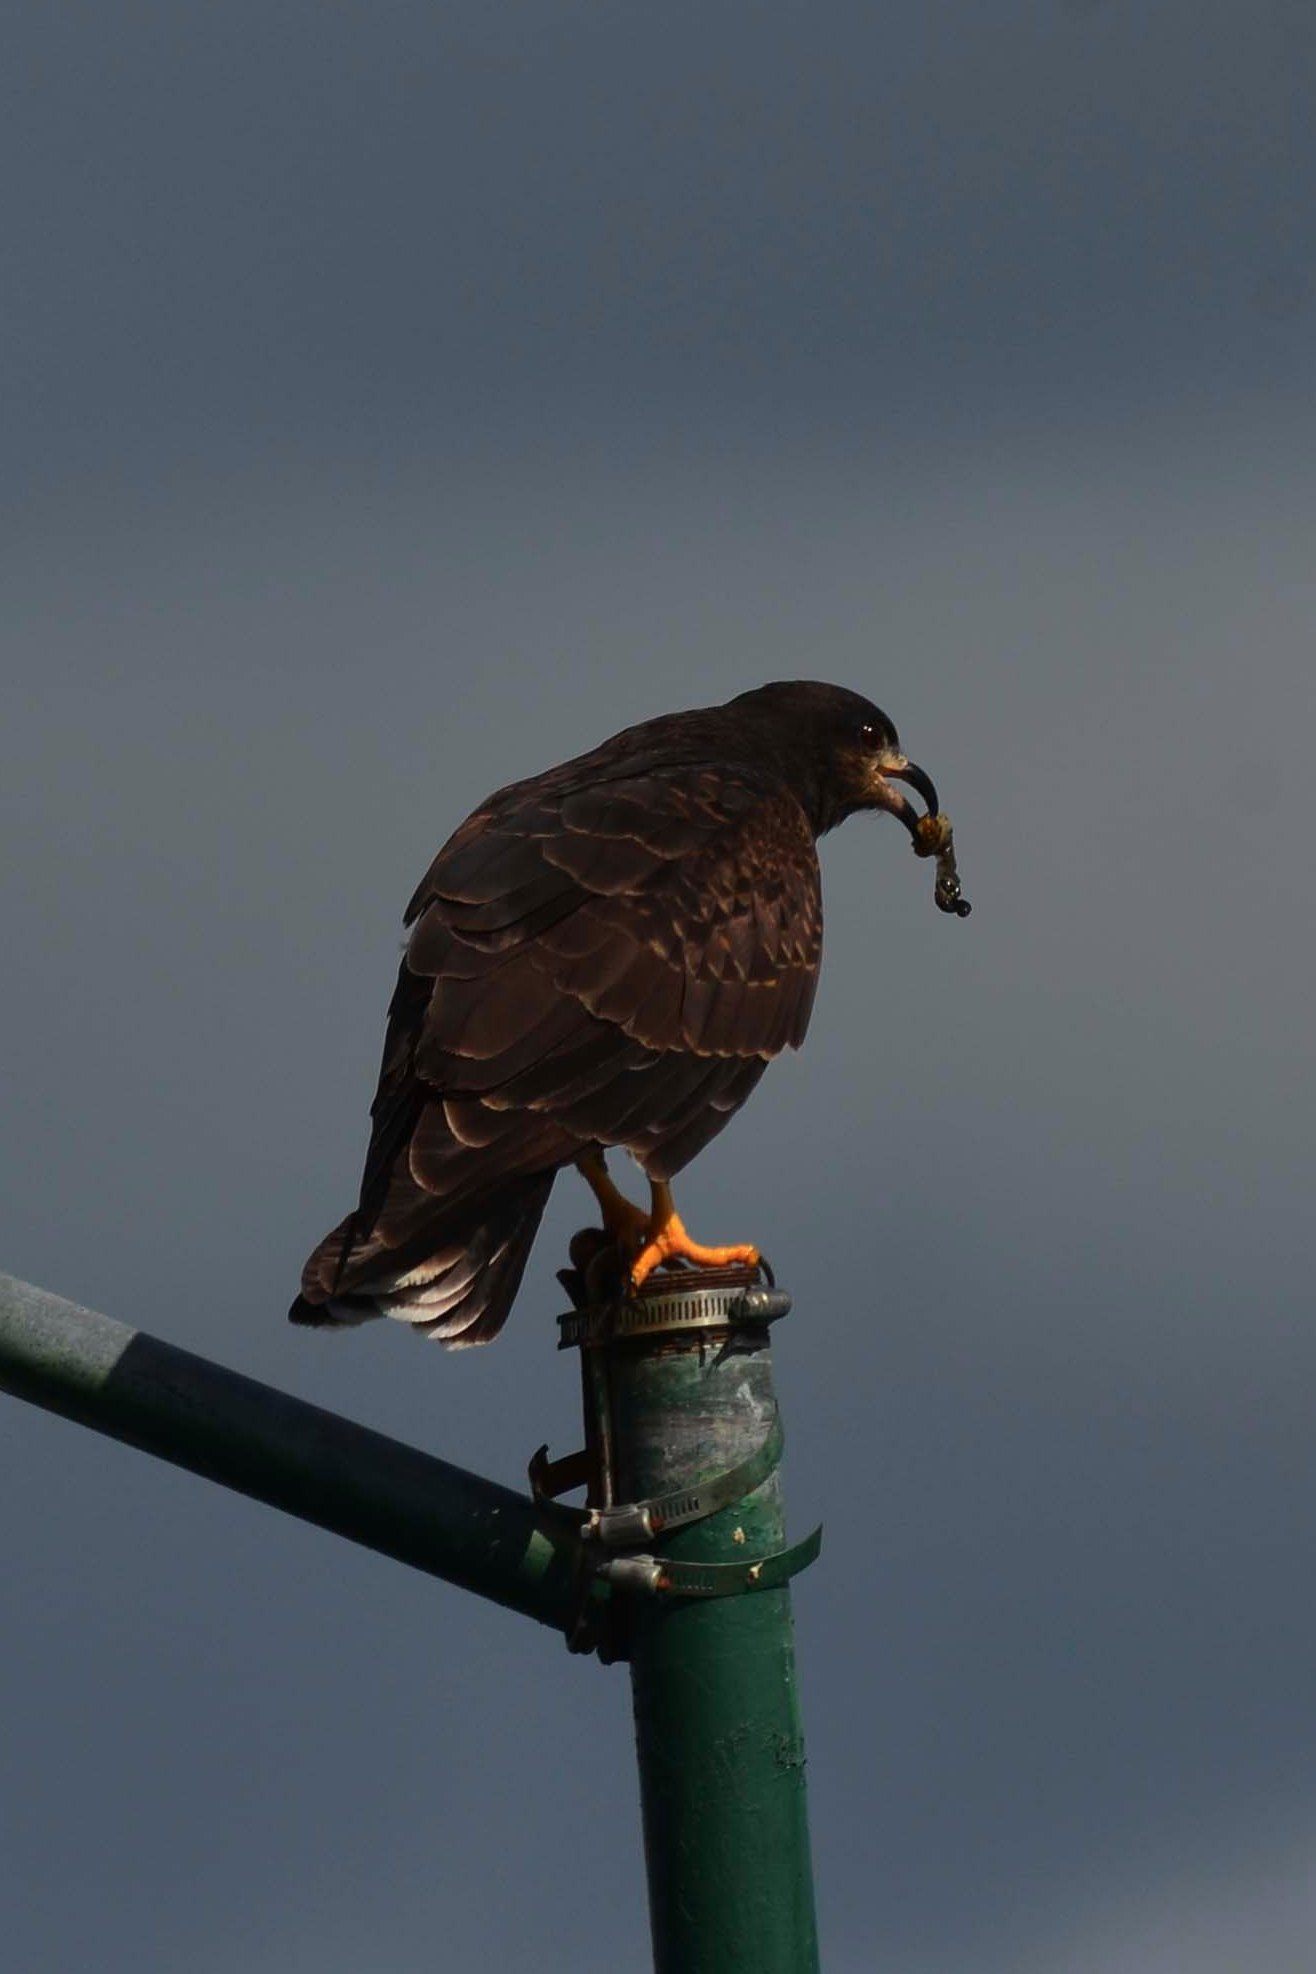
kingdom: Animalia
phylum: Chordata
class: Aves
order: Accipitriformes
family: Accipitridae
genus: Rostrhamus
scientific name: Rostrhamus sociabilis
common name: Snail kite
